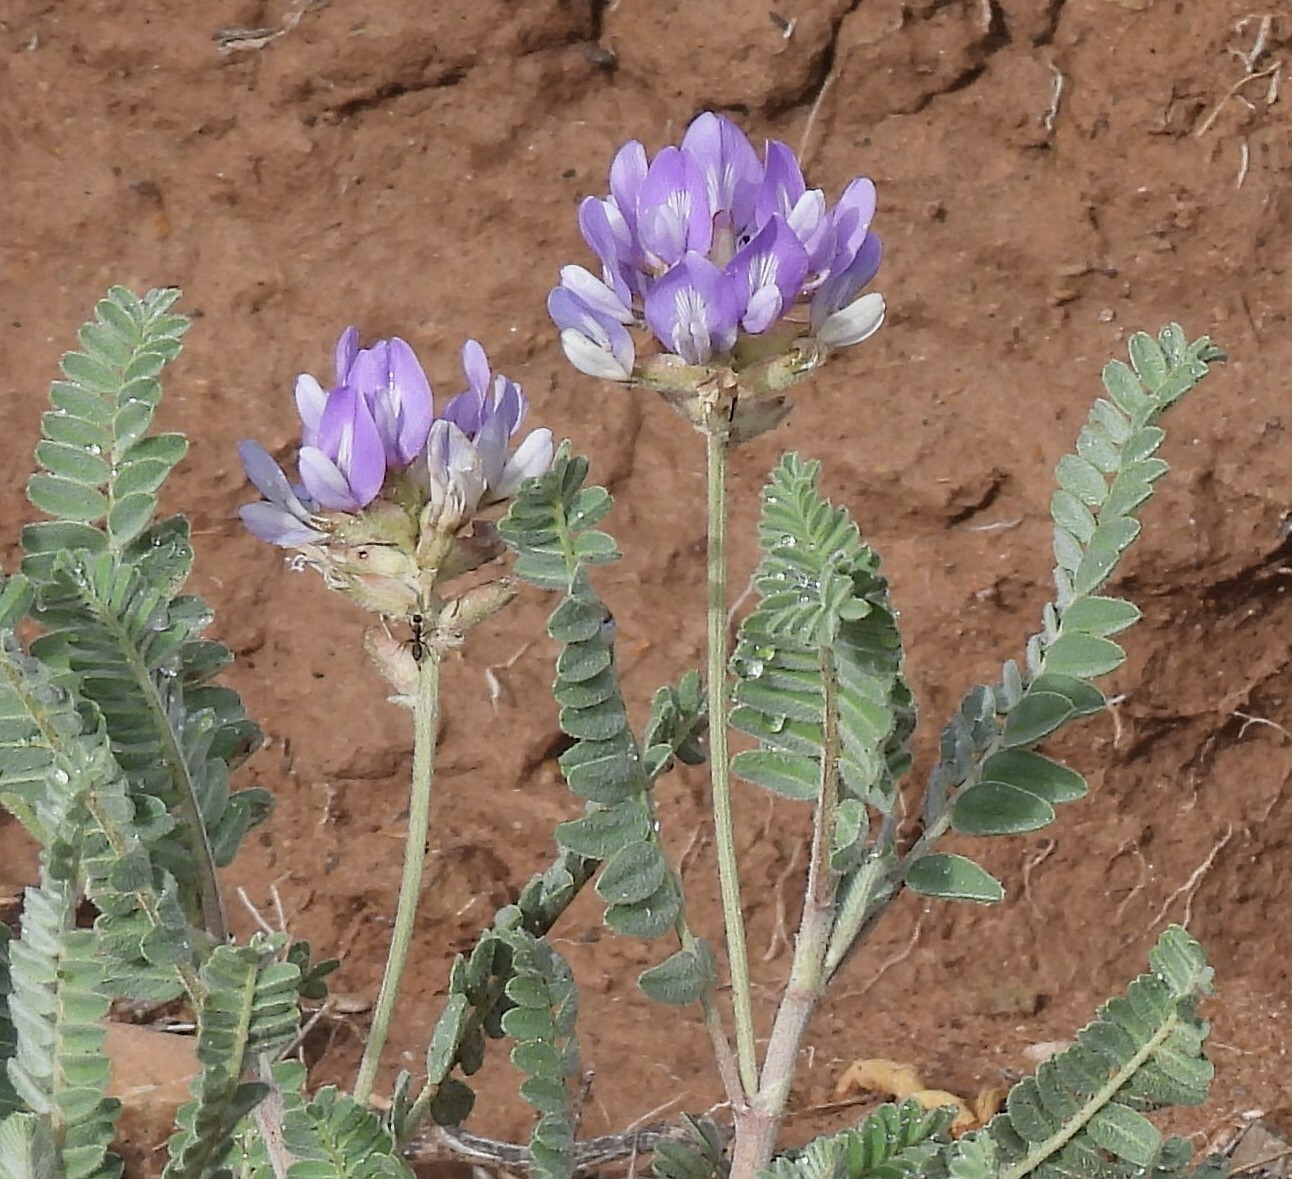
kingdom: Plantae
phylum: Tracheophyta
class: Magnoliopsida
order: Fabales
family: Fabaceae
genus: Astragalus
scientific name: Astragalus garbancillo
